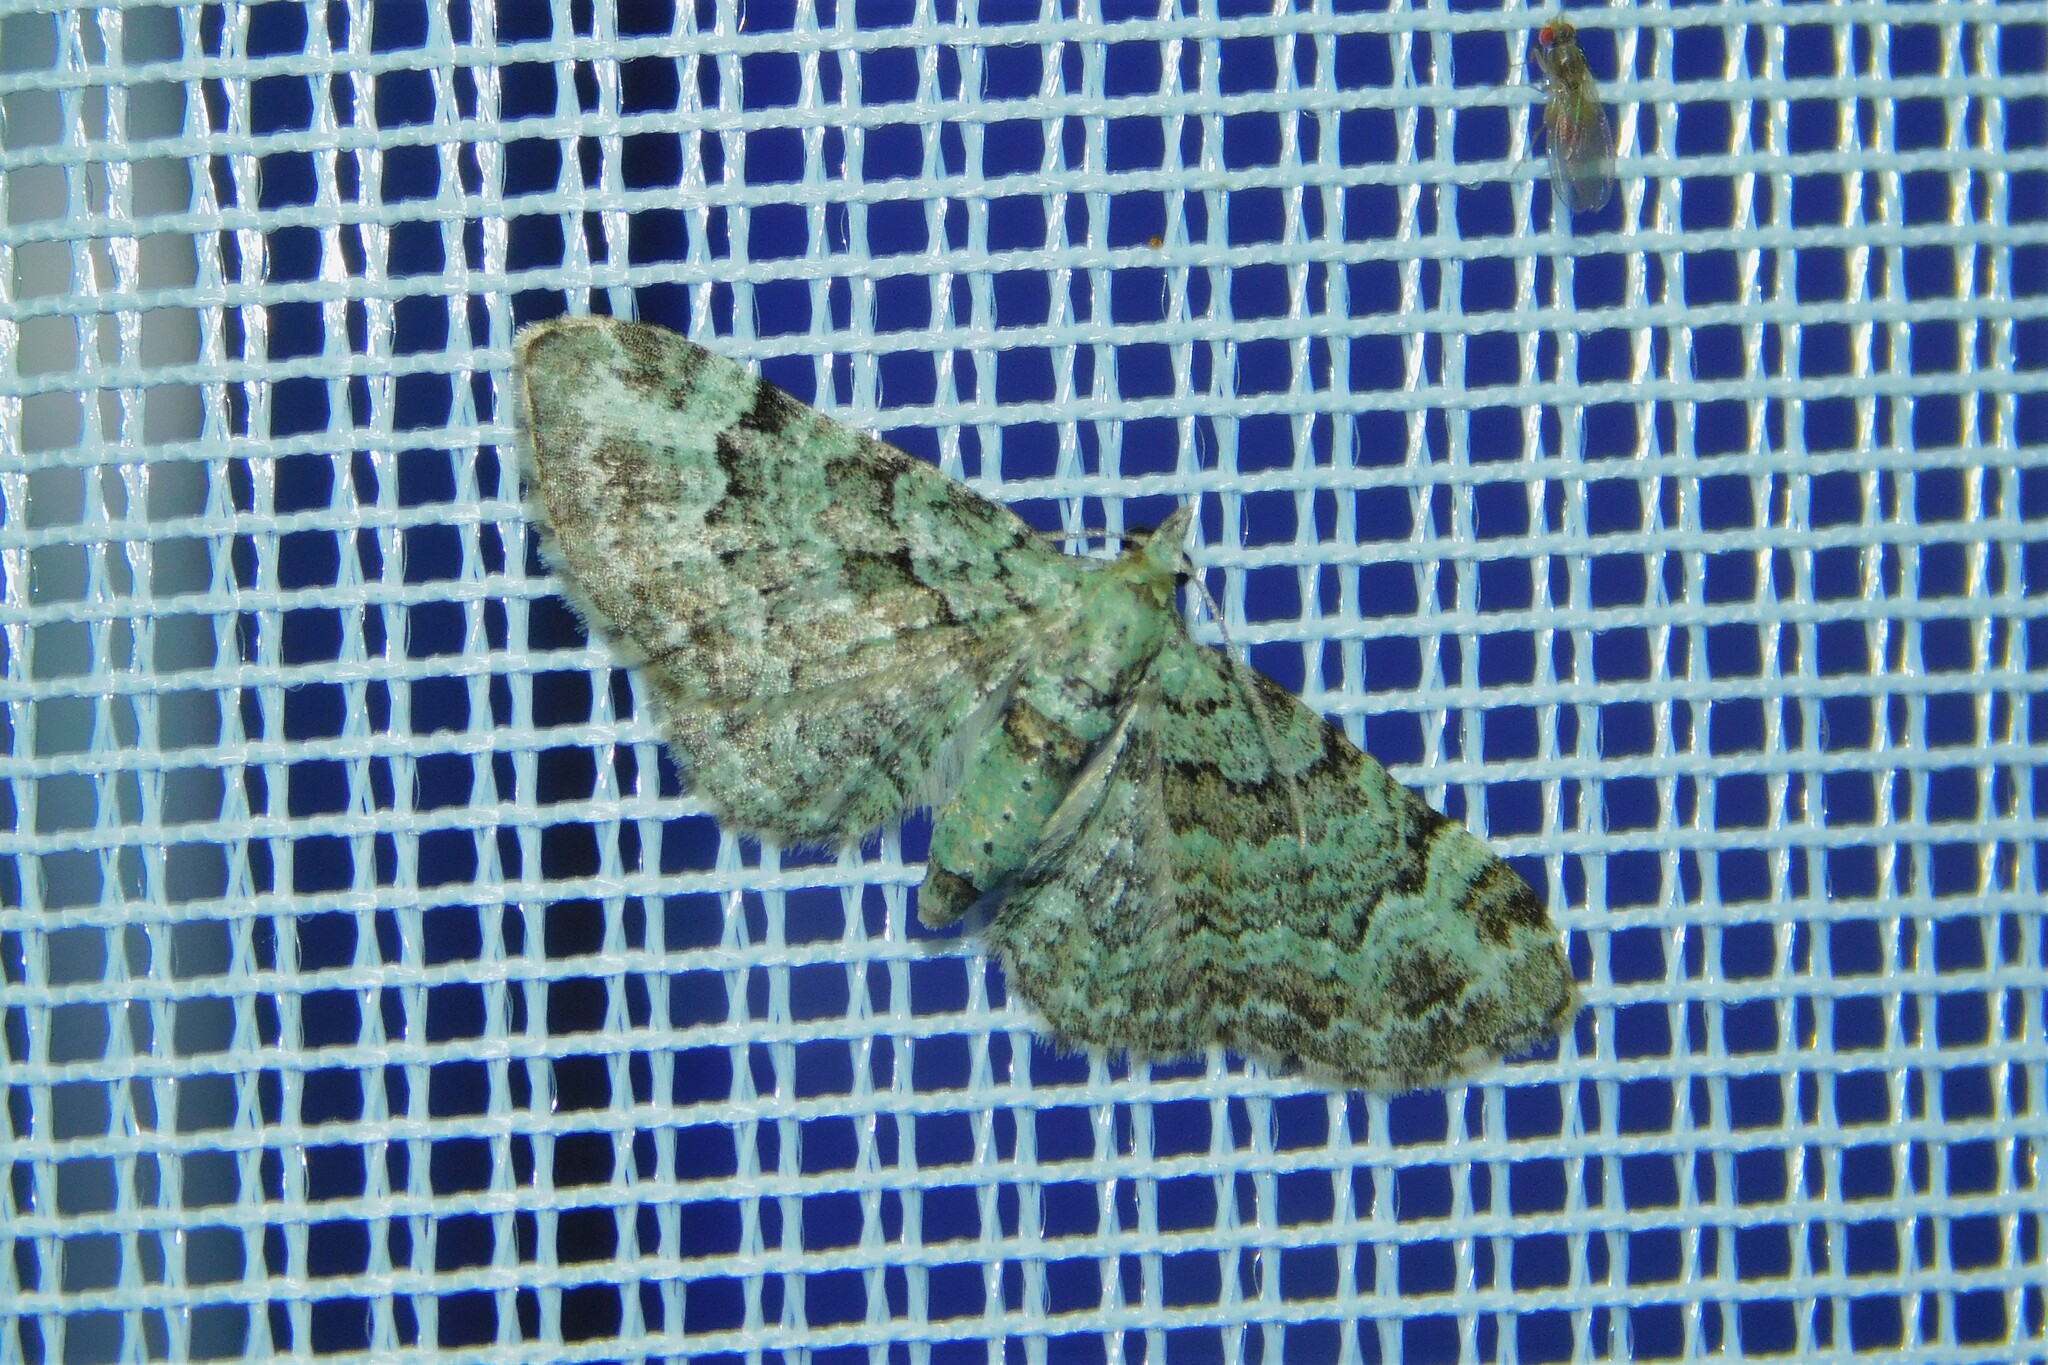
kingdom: Animalia
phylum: Arthropoda
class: Insecta
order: Lepidoptera
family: Geometridae
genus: Pasiphila
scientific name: Pasiphila rectangulata
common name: Green pug
